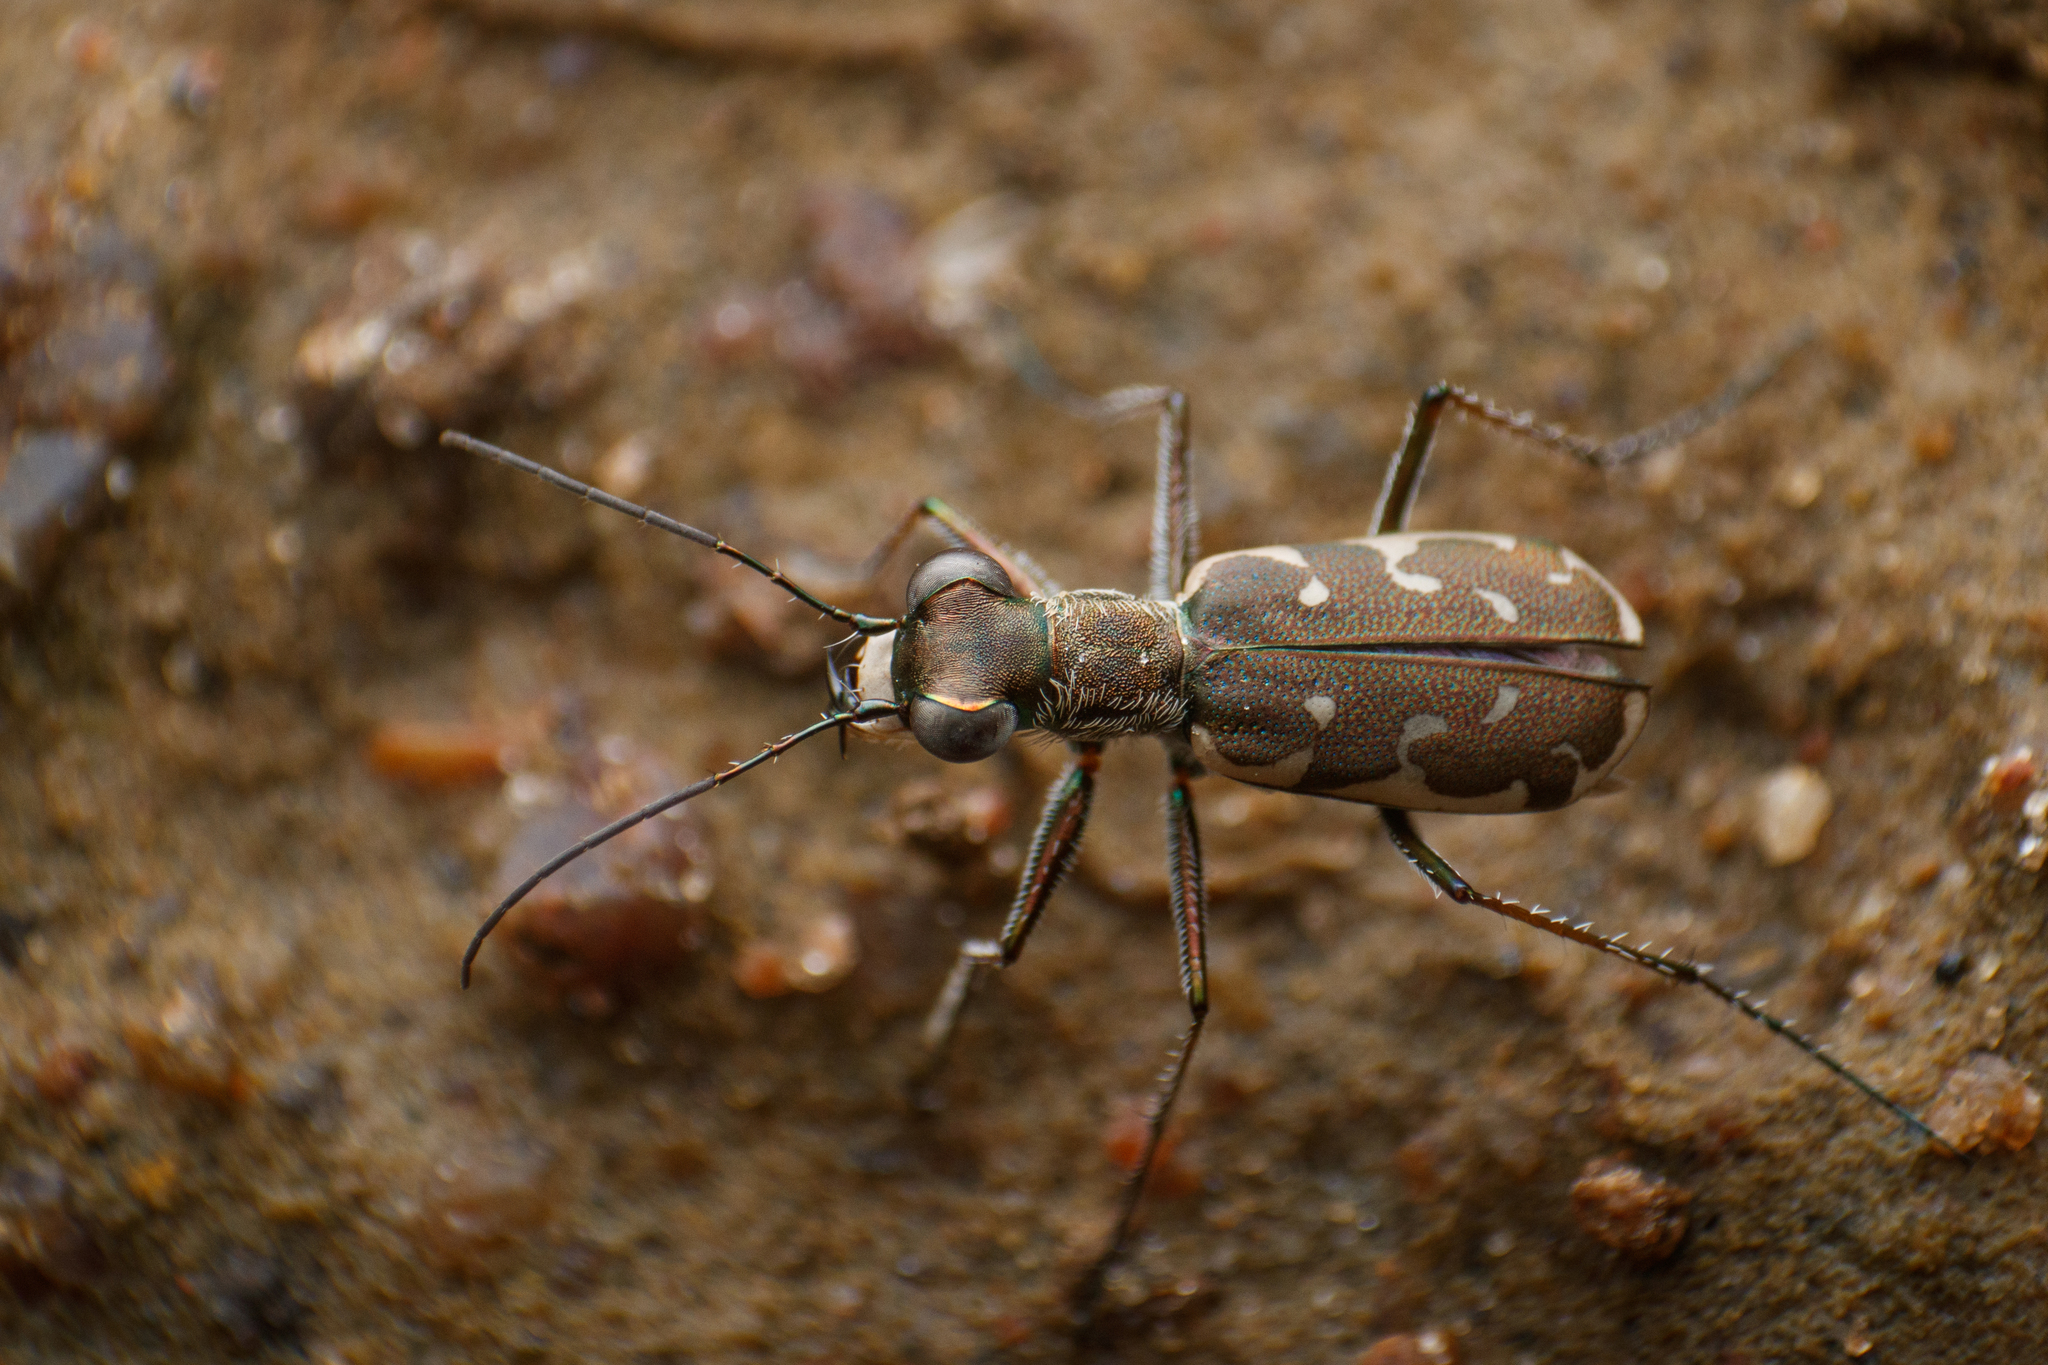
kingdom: Animalia
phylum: Arthropoda
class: Insecta
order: Coleoptera
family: Carabidae
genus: Myriochila
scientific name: Myriochila fastidiosa
